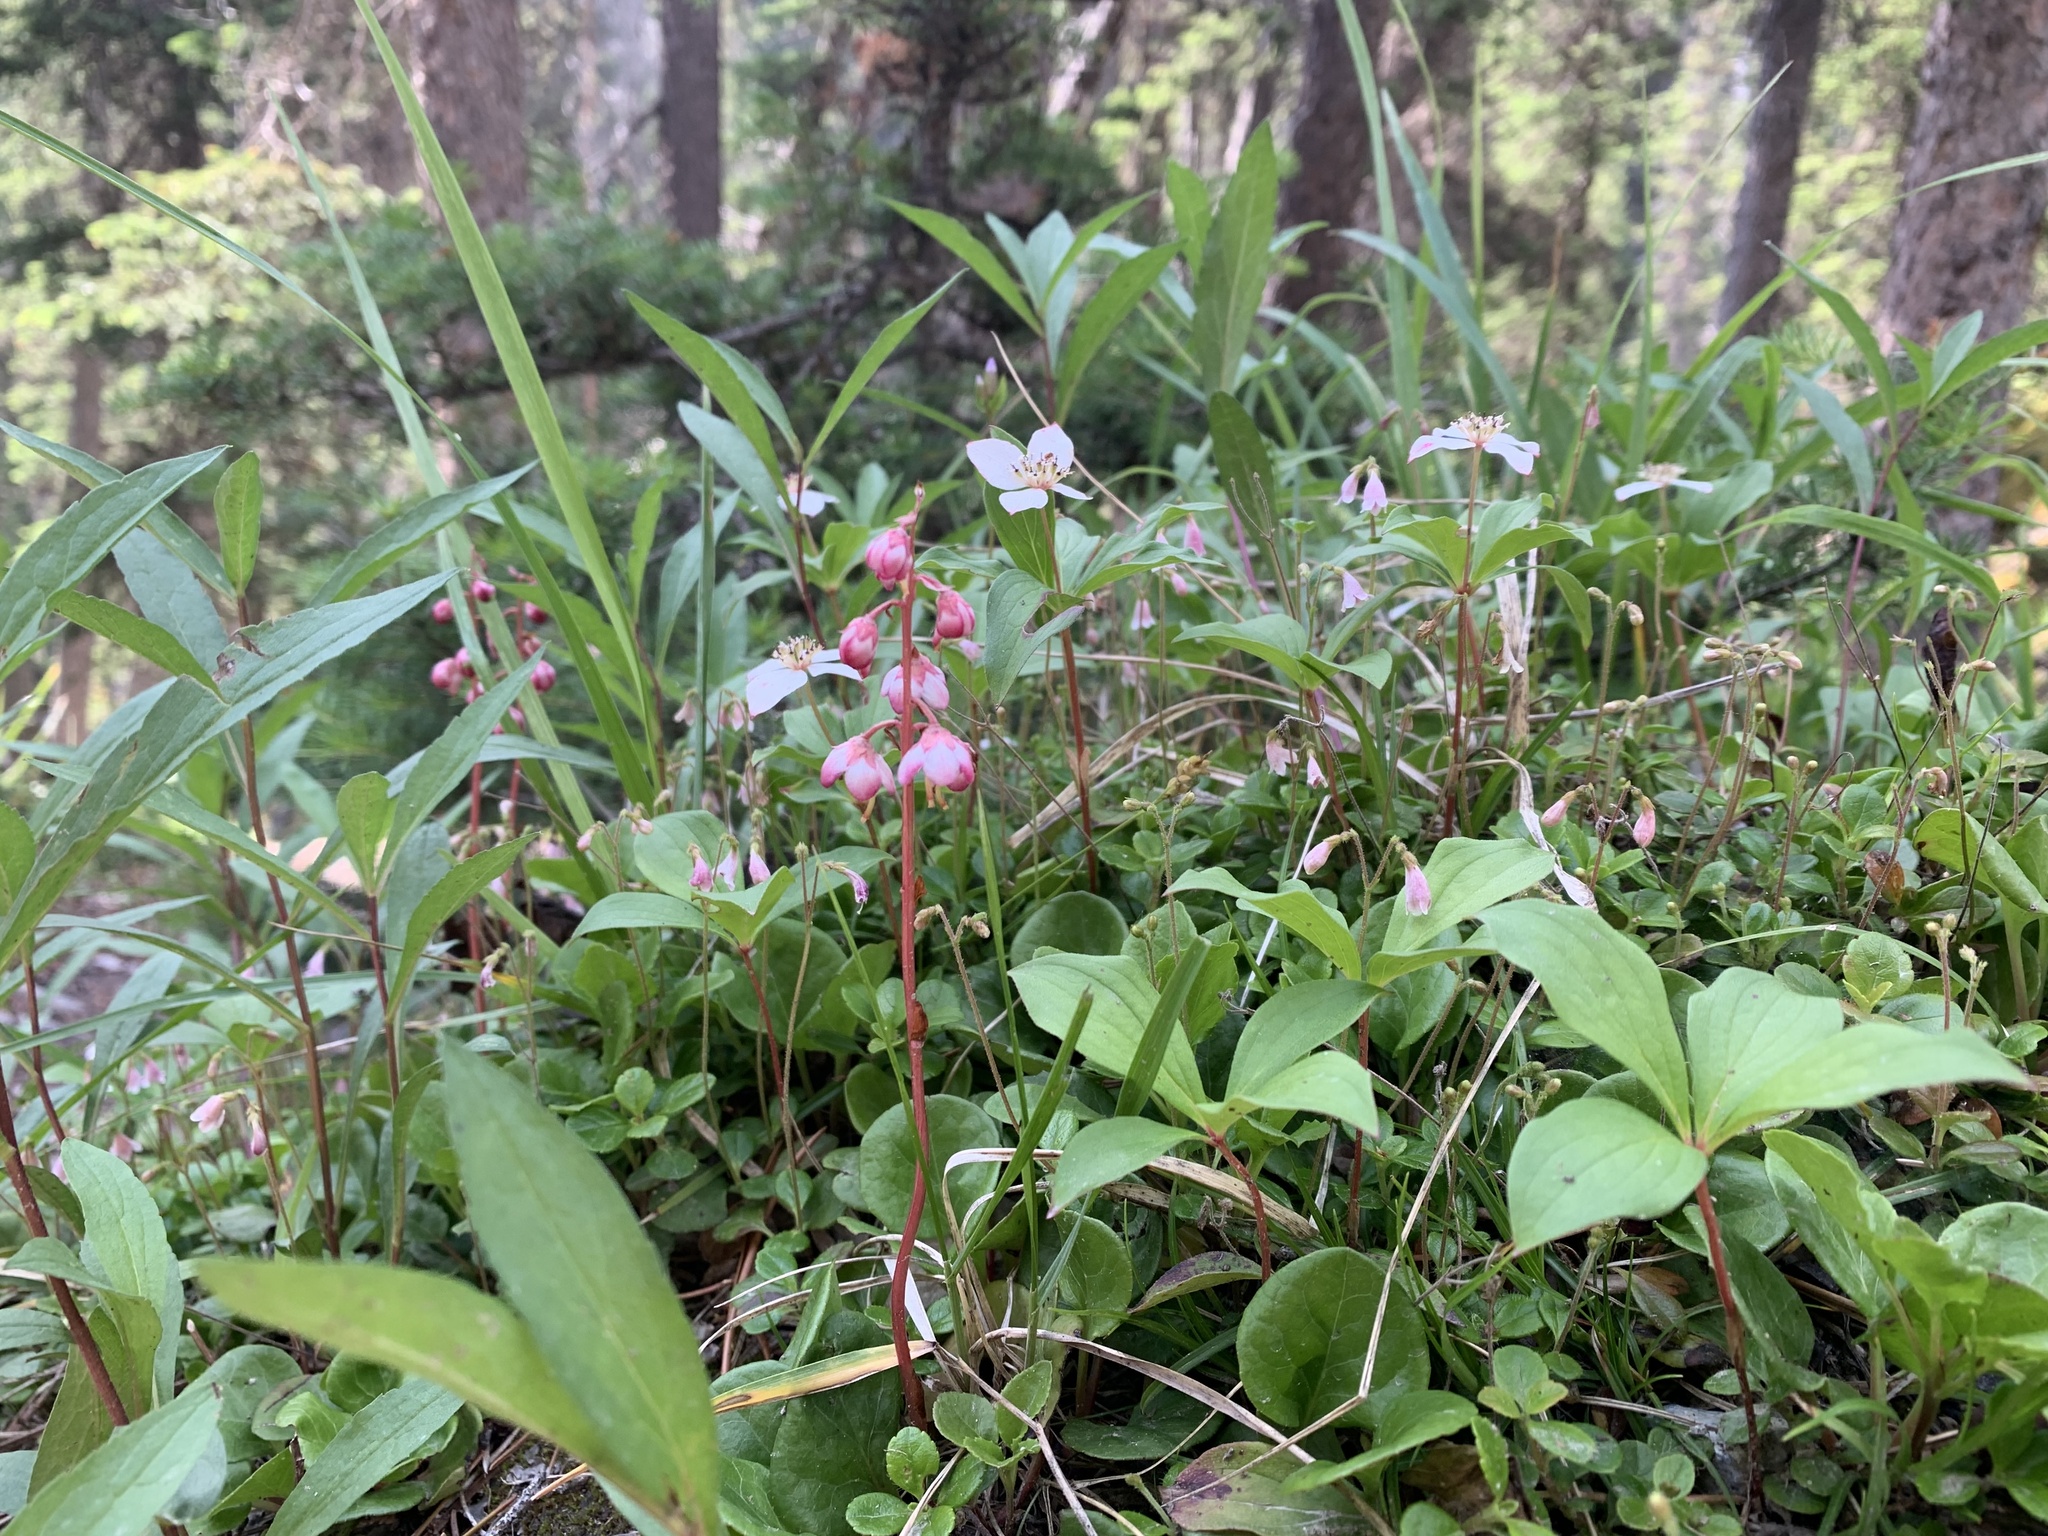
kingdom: Plantae
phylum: Tracheophyta
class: Magnoliopsida
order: Ericales
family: Ericaceae
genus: Pyrola
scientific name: Pyrola asarifolia
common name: Bog wintergreen
